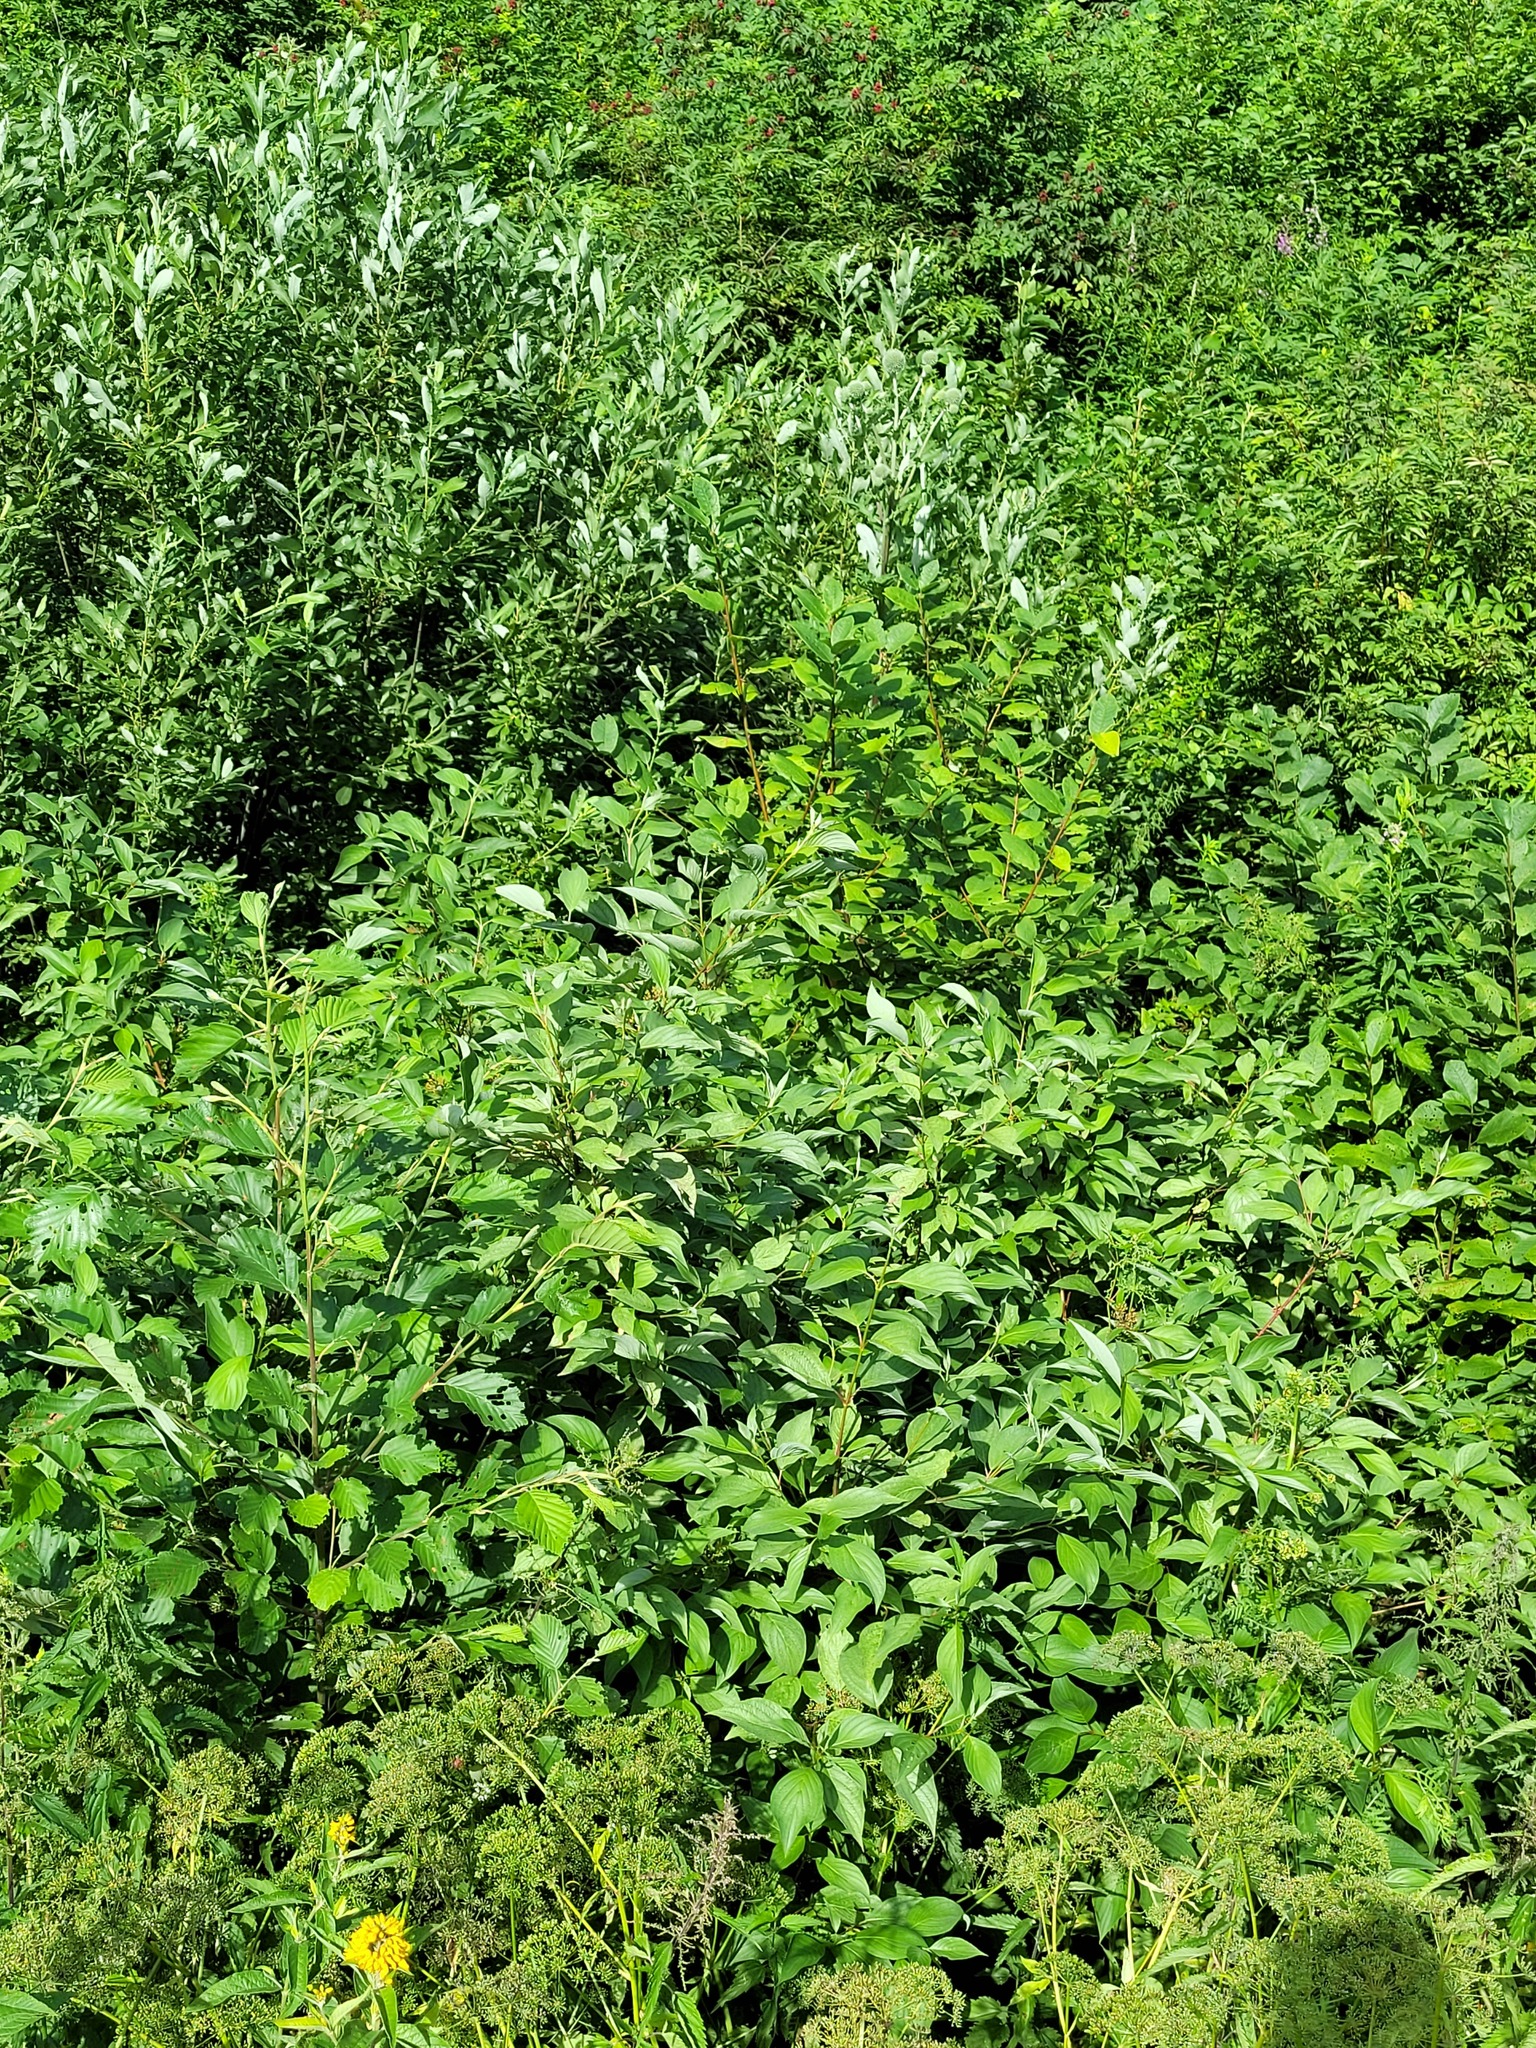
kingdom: Plantae
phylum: Tracheophyta
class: Magnoliopsida
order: Cornales
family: Cornaceae
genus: Cornus
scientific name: Cornus alba
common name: White dogwood
